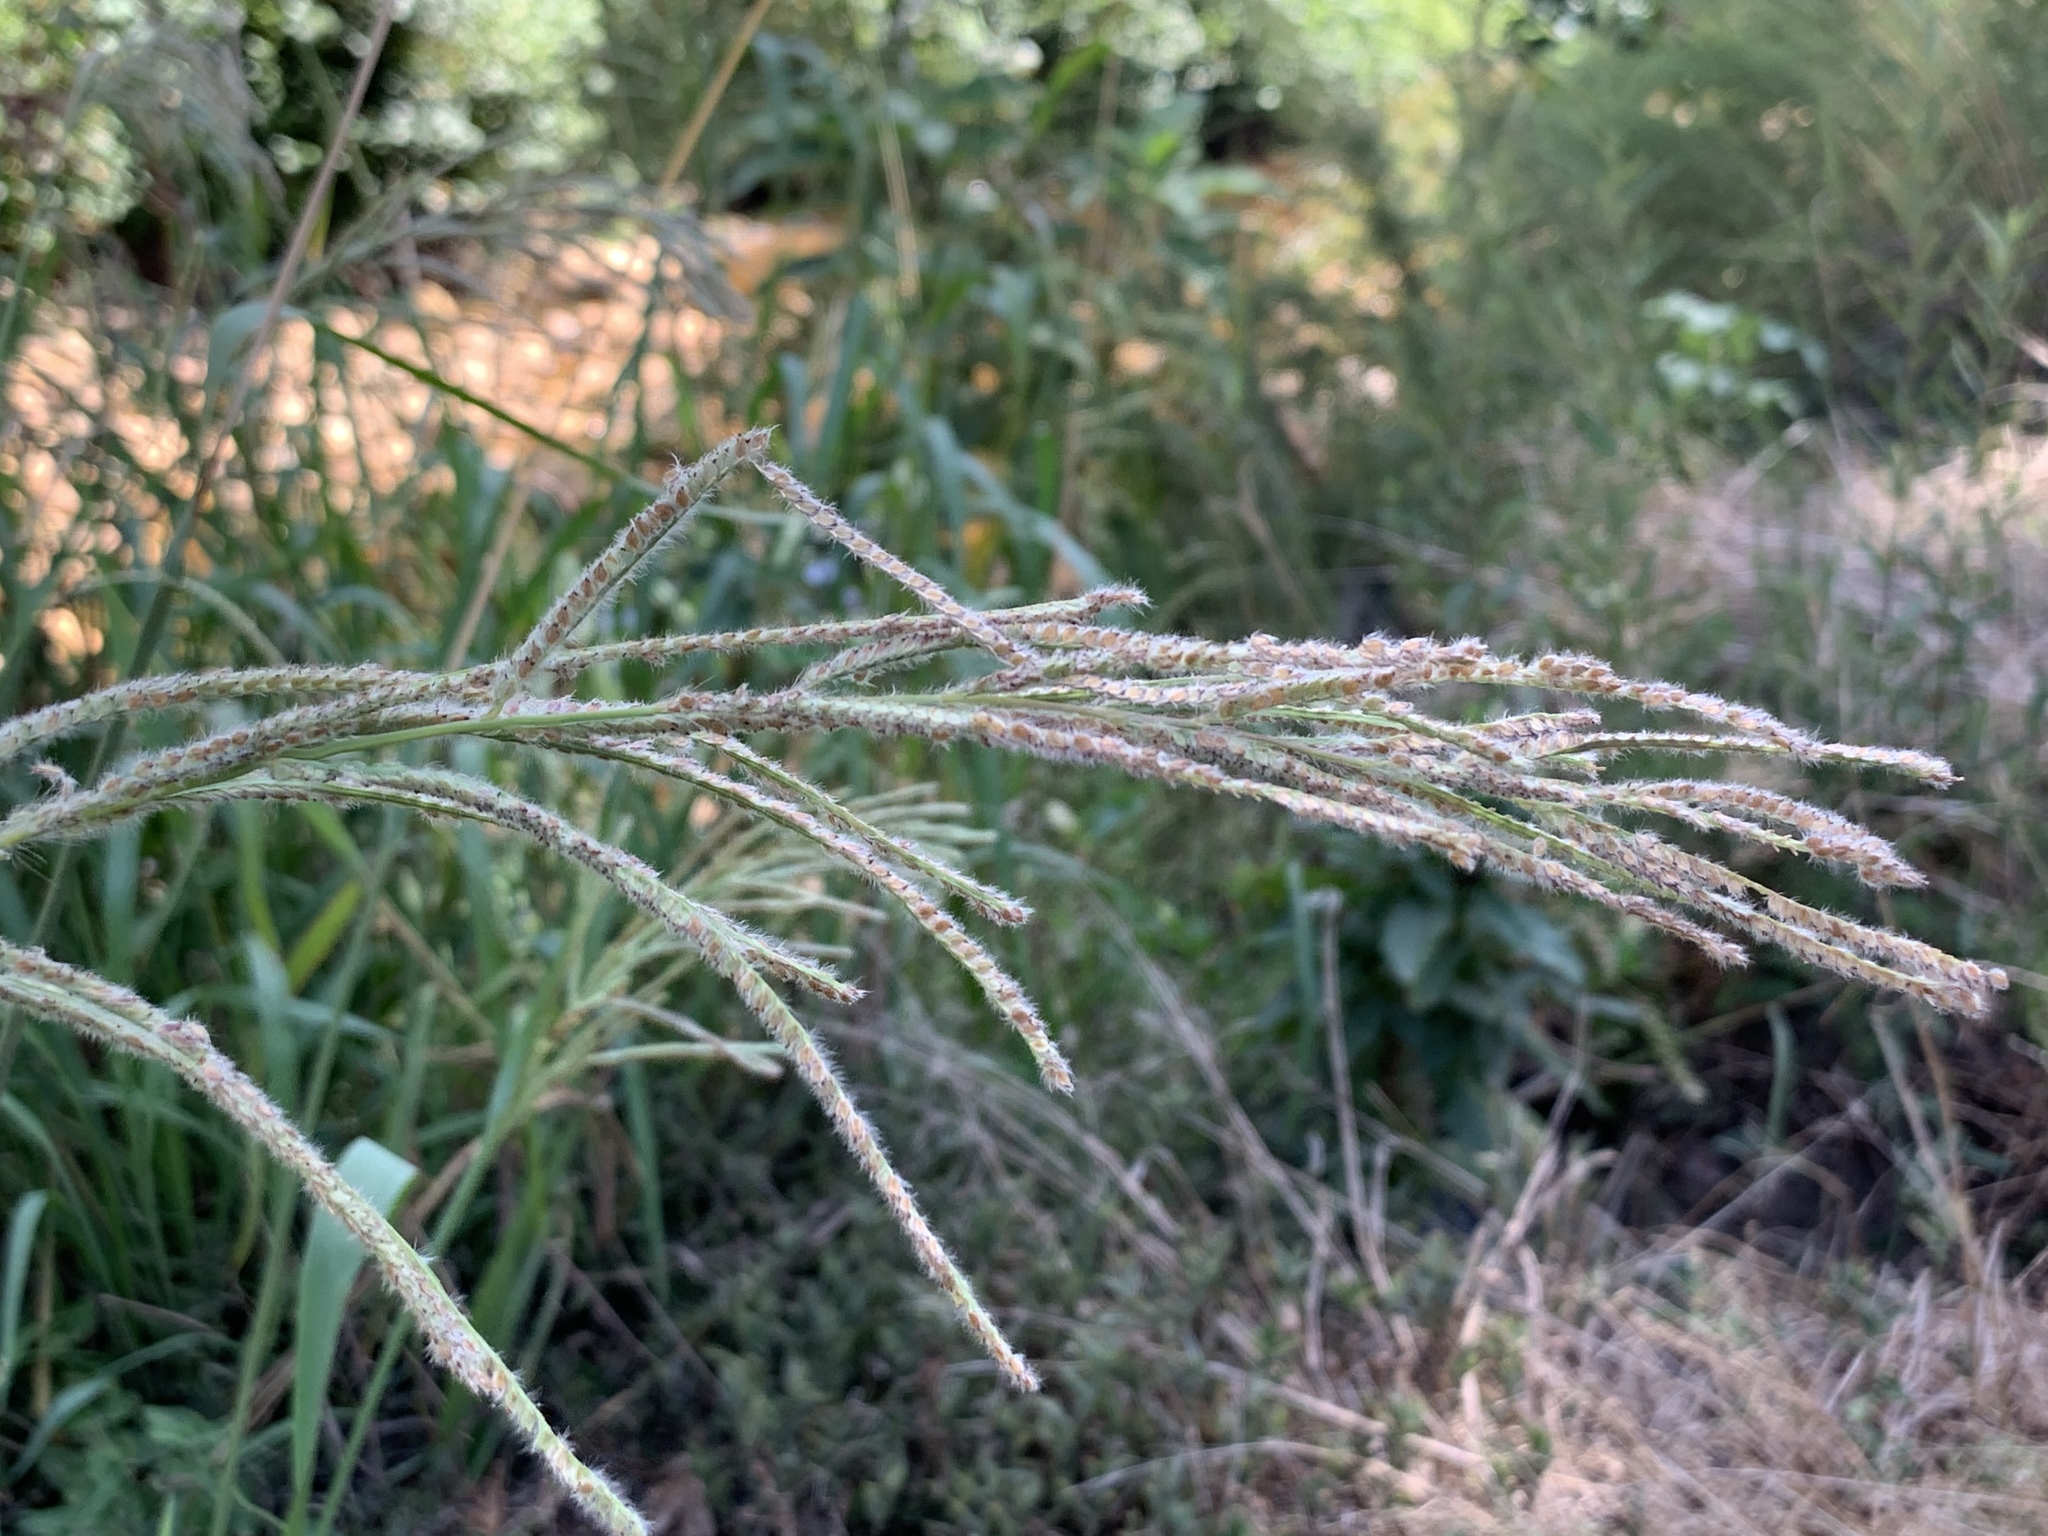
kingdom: Plantae
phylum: Tracheophyta
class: Liliopsida
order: Poales
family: Poaceae
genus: Paspalum
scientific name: Paspalum urvillei
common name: Vasey's grass
